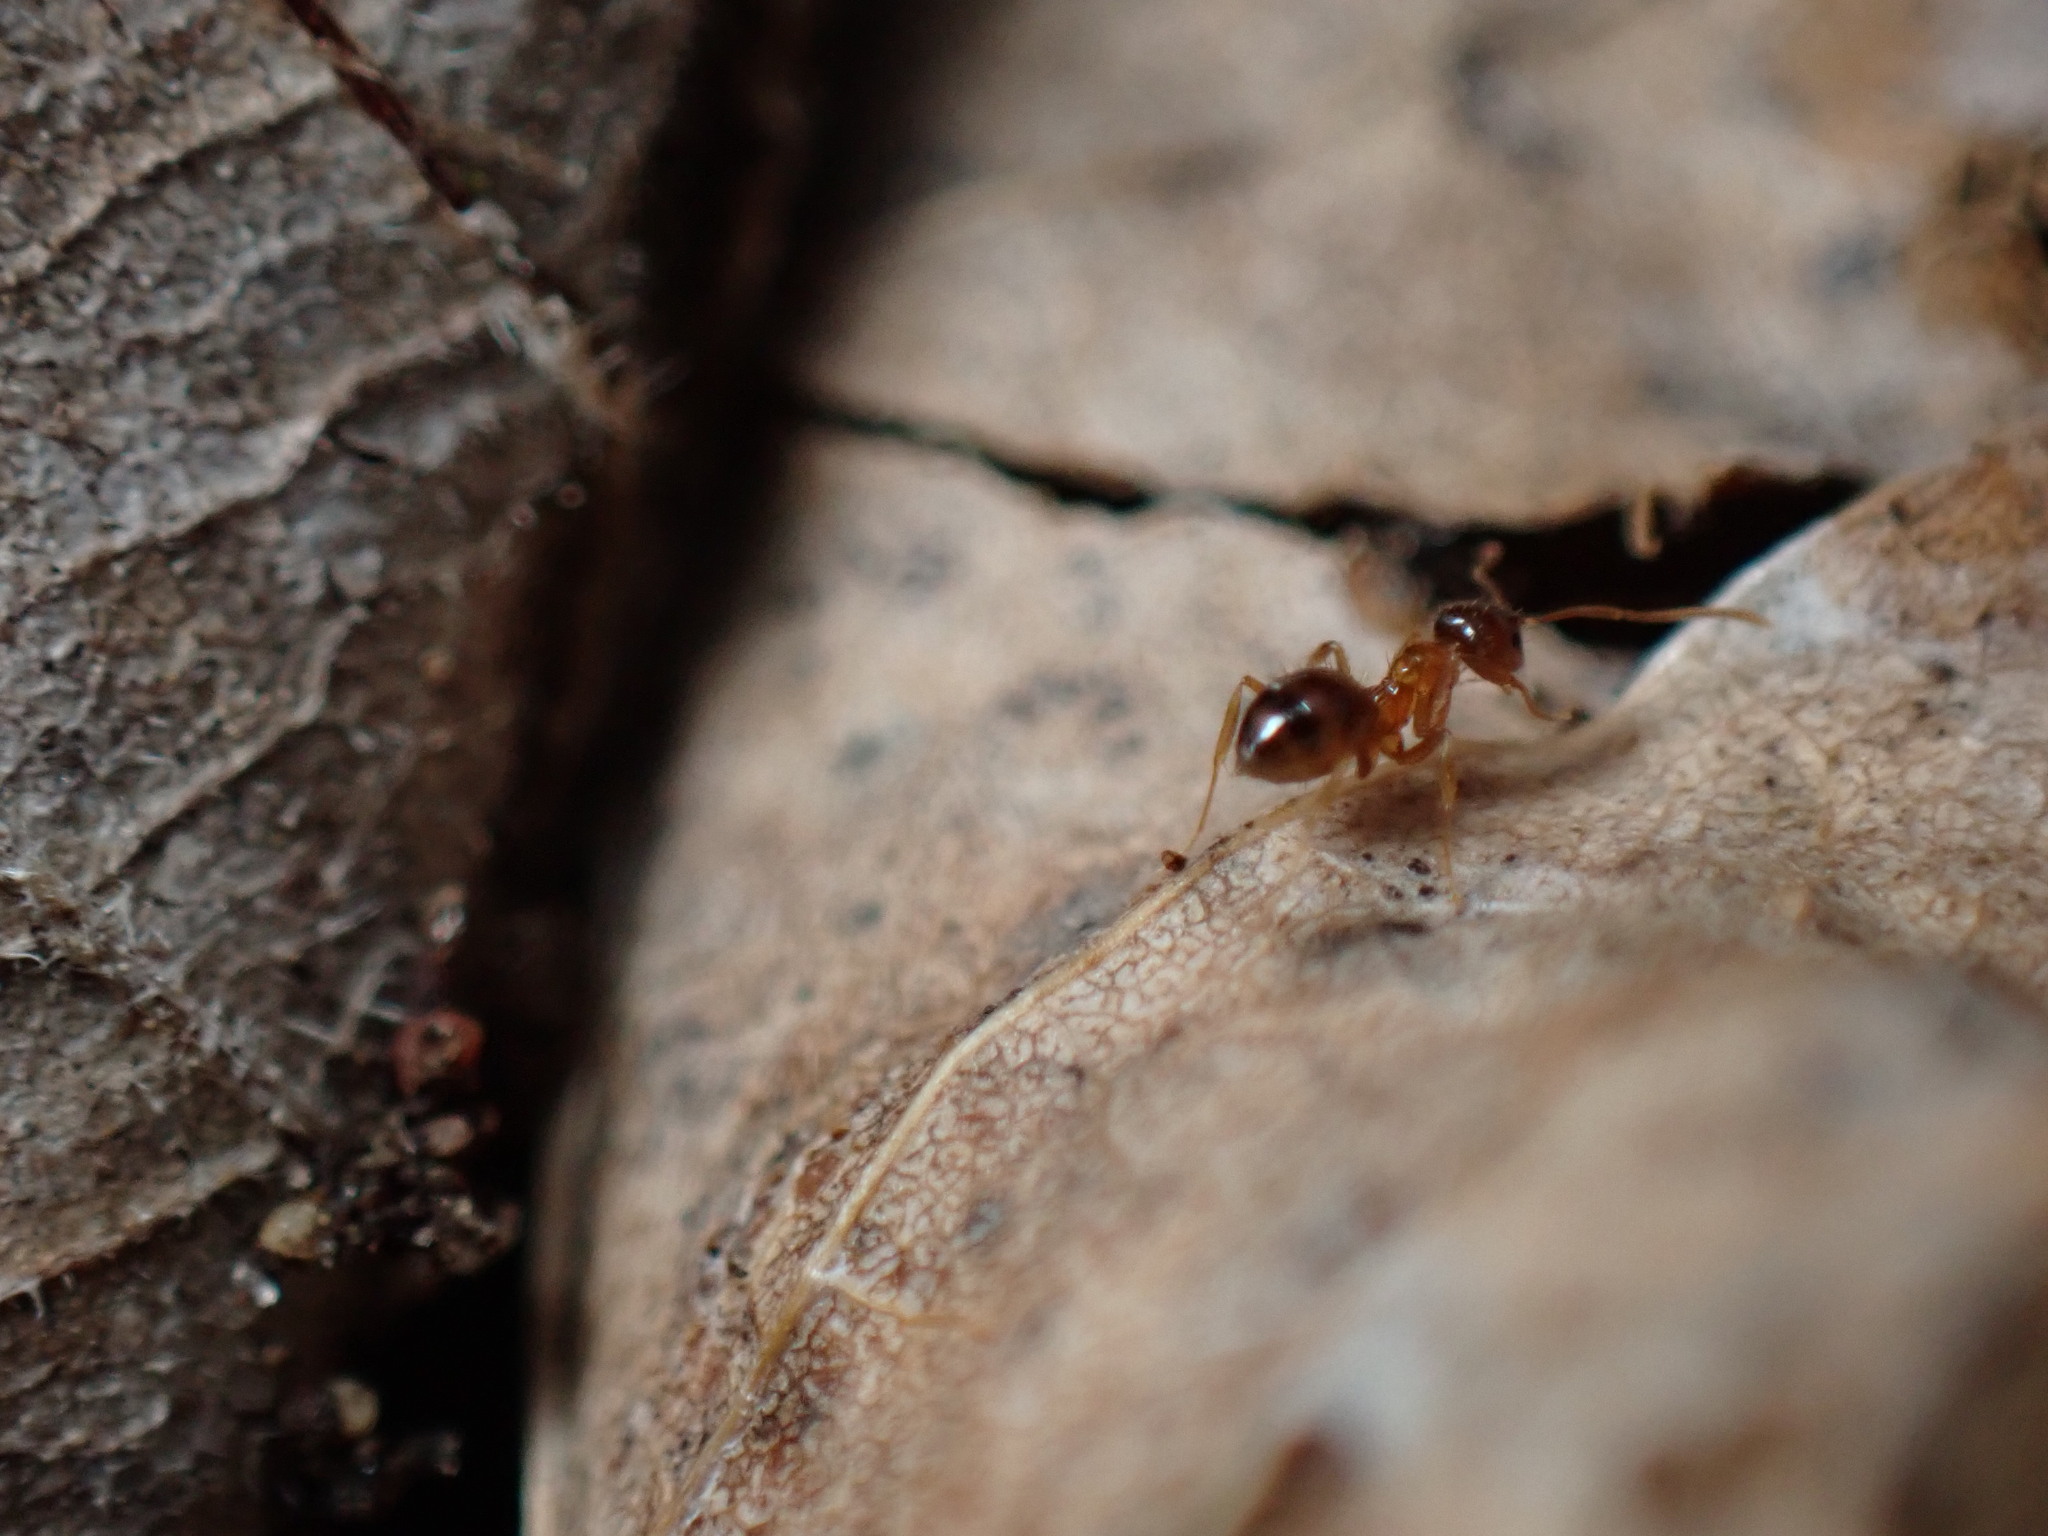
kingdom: Animalia
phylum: Arthropoda
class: Insecta
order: Hymenoptera
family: Formicidae
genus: Paratrechina
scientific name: Paratrechina flavipes
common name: Eastern asian formicine ant
